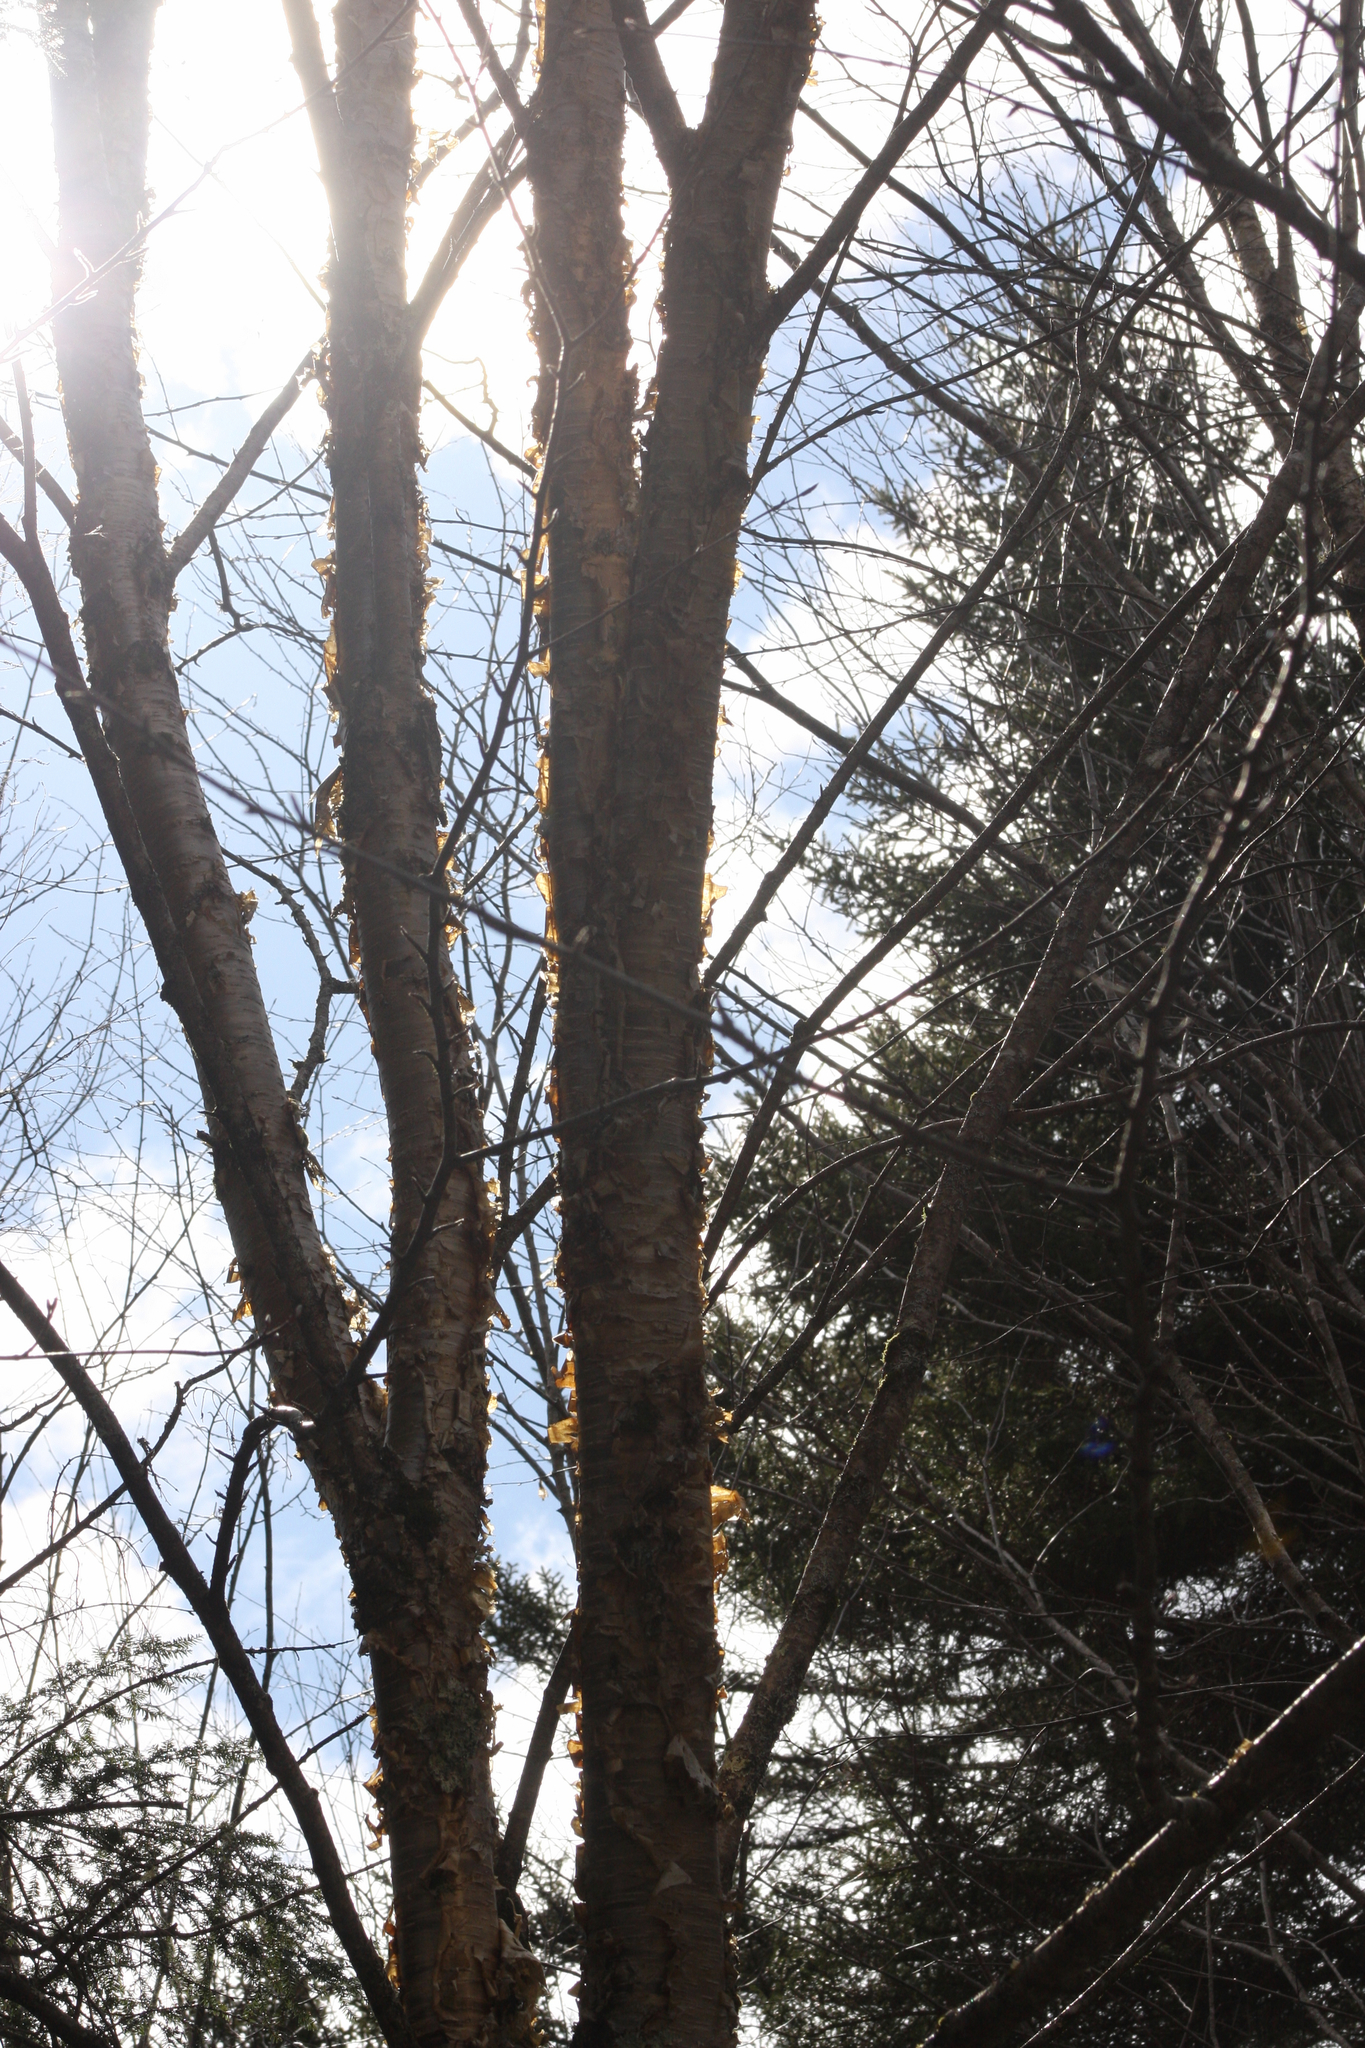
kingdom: Plantae
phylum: Tracheophyta
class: Magnoliopsida
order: Fagales
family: Betulaceae
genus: Betula
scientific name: Betula alleghaniensis
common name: Yellow birch
